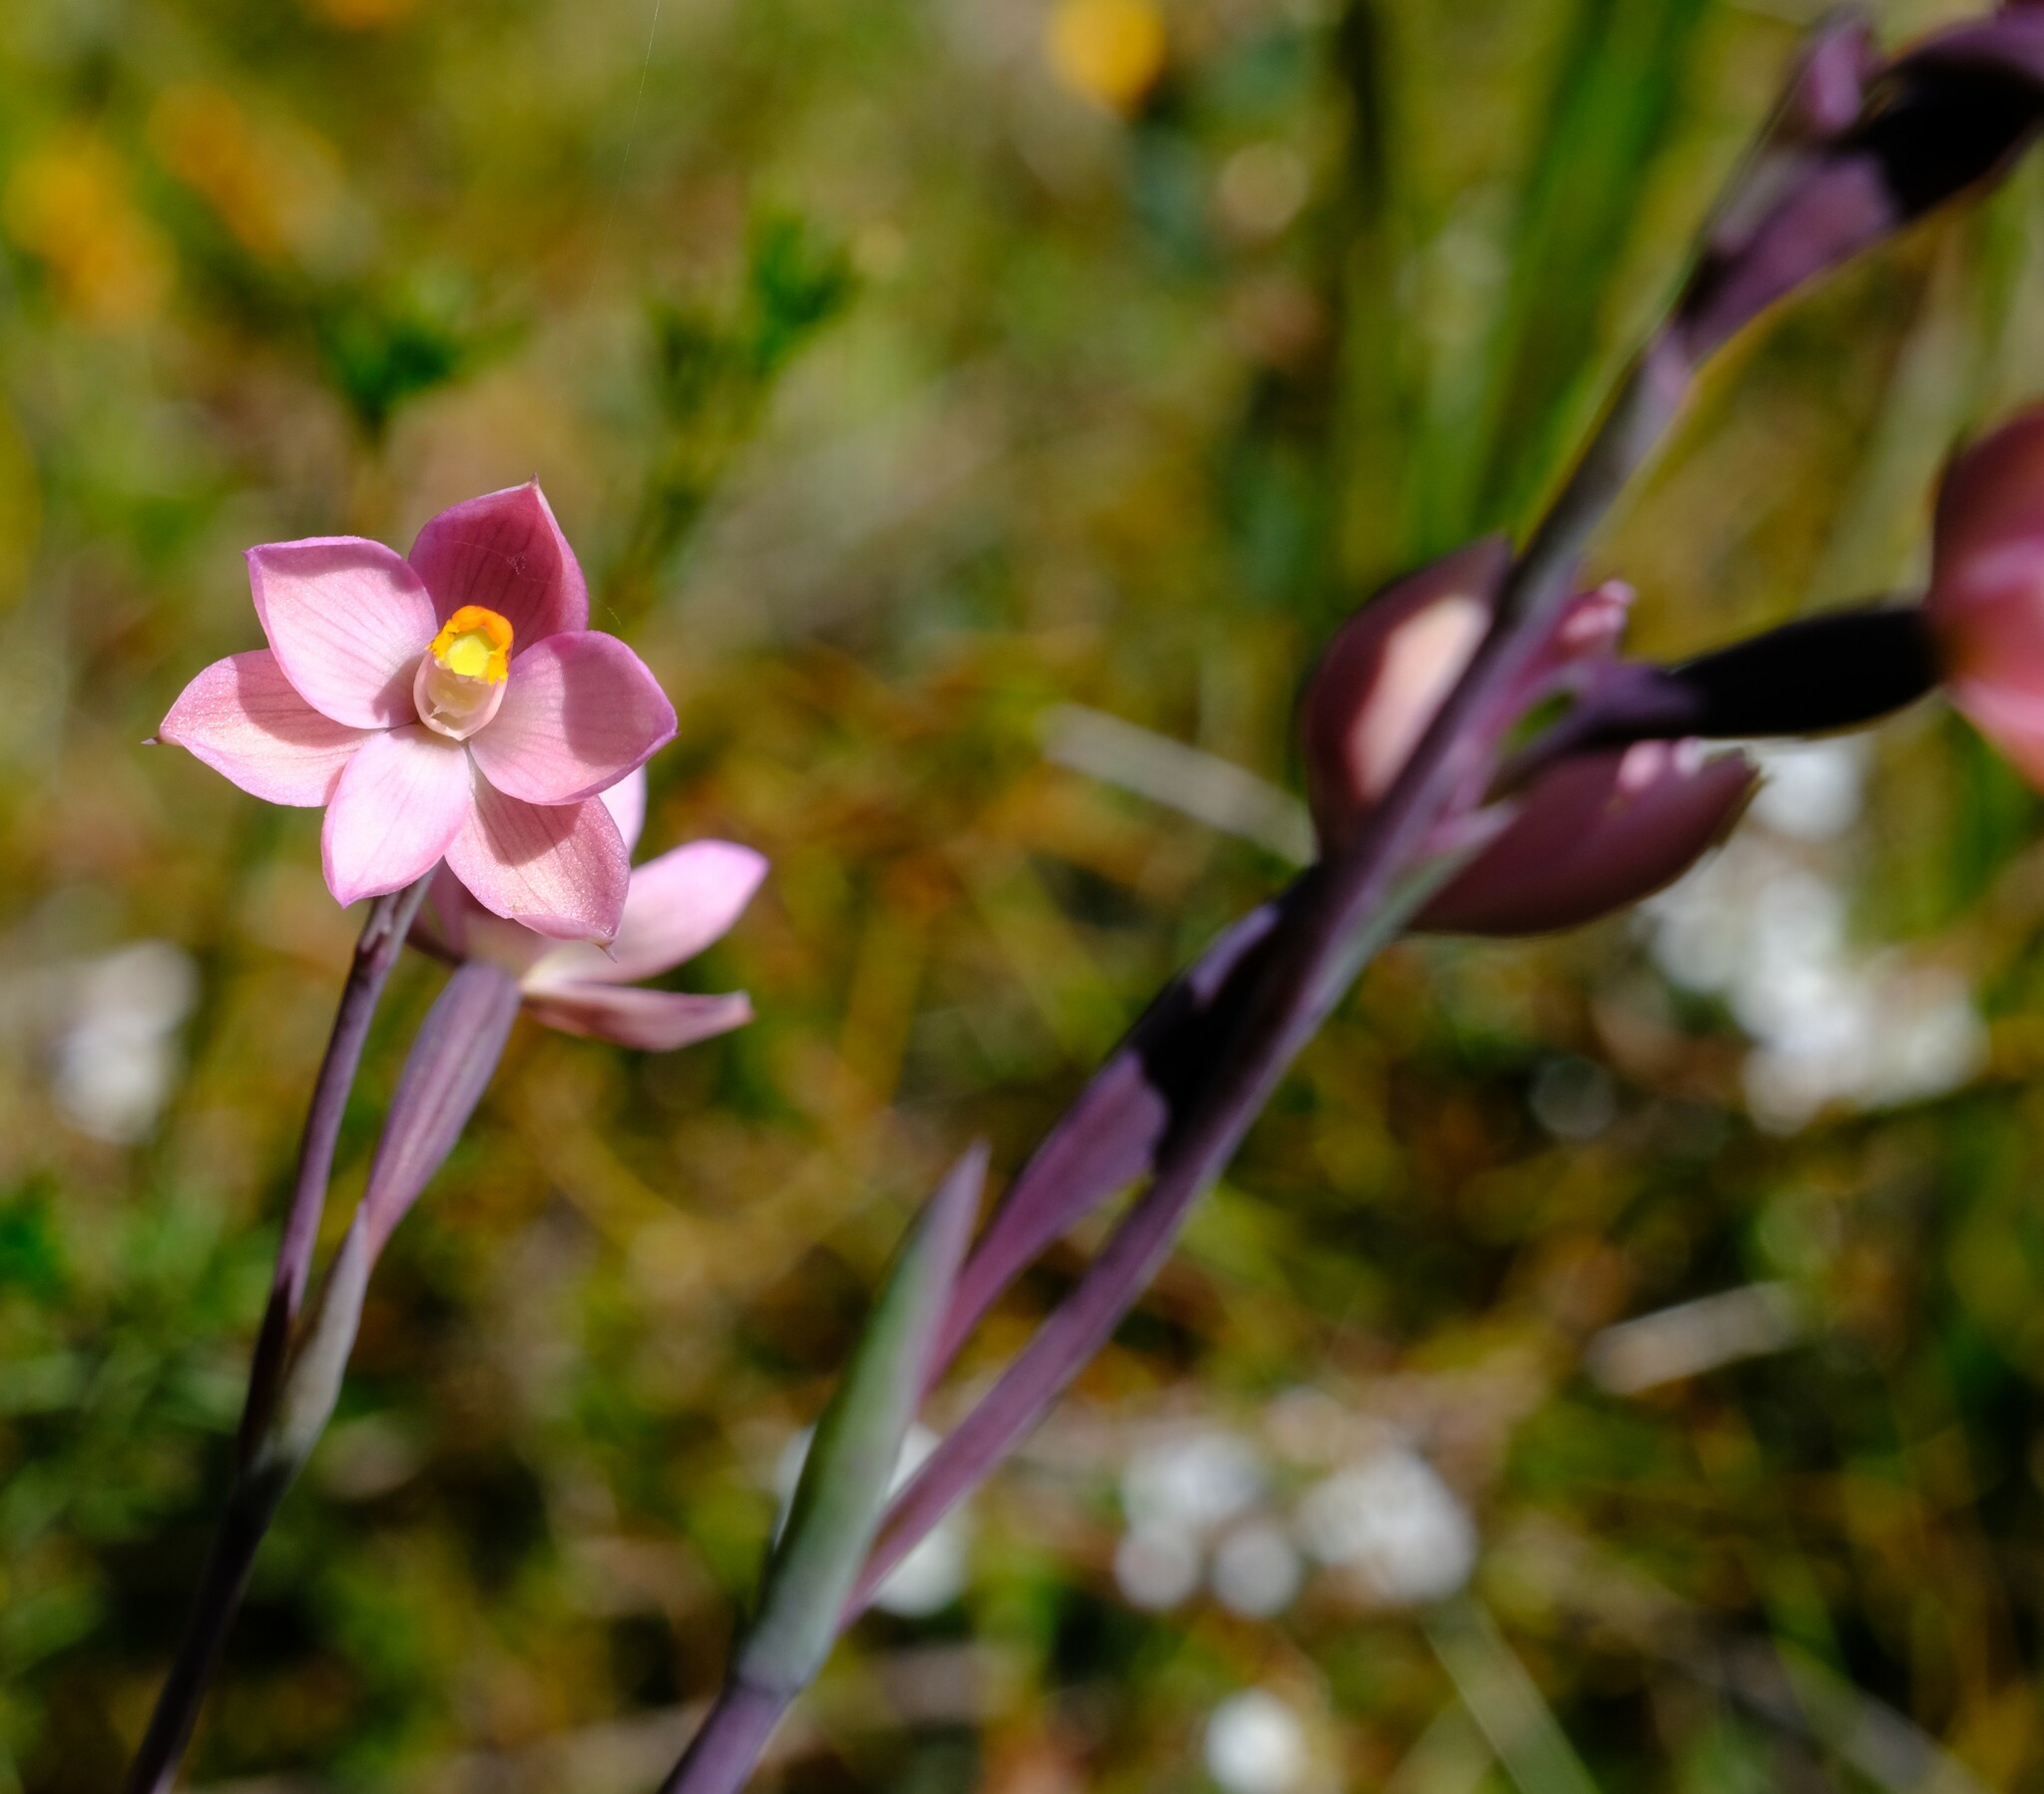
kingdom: Plantae
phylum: Tracheophyta
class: Liliopsida
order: Asparagales
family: Orchidaceae
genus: Thelymitra
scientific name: Thelymitra rubra
